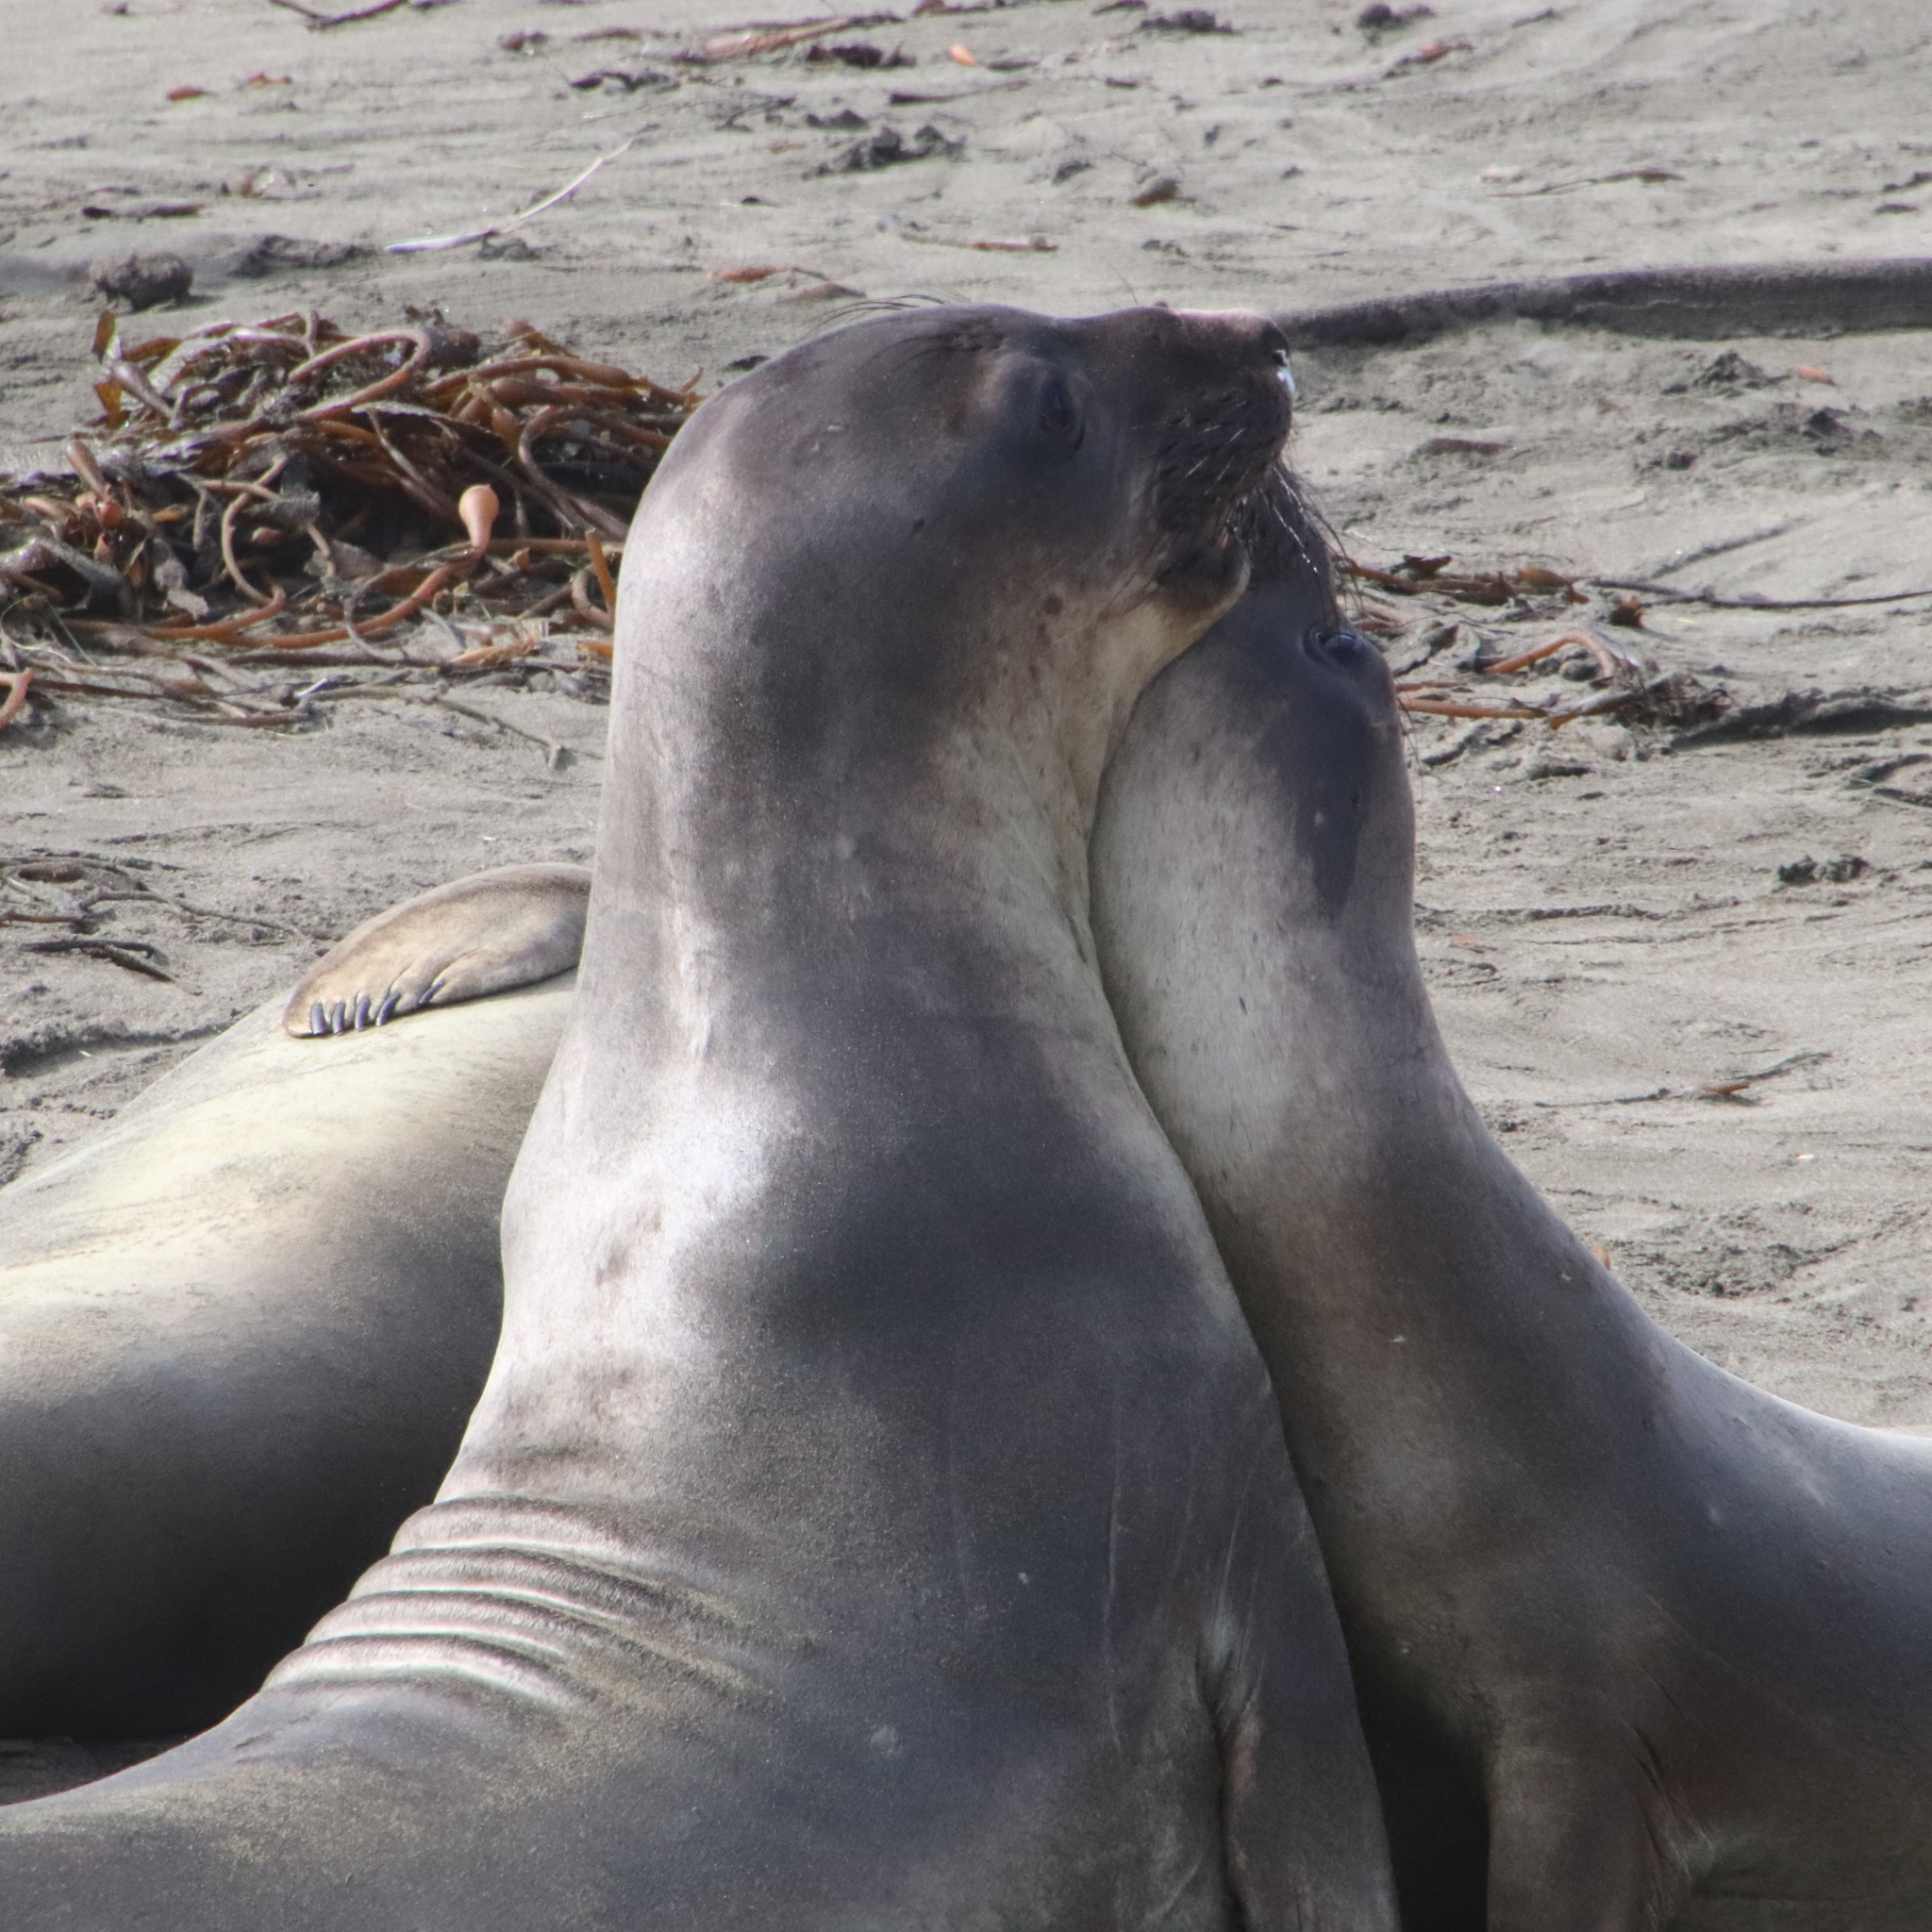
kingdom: Animalia
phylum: Chordata
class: Mammalia
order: Carnivora
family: Phocidae
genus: Mirounga
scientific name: Mirounga angustirostris
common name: Northern elephant seal
